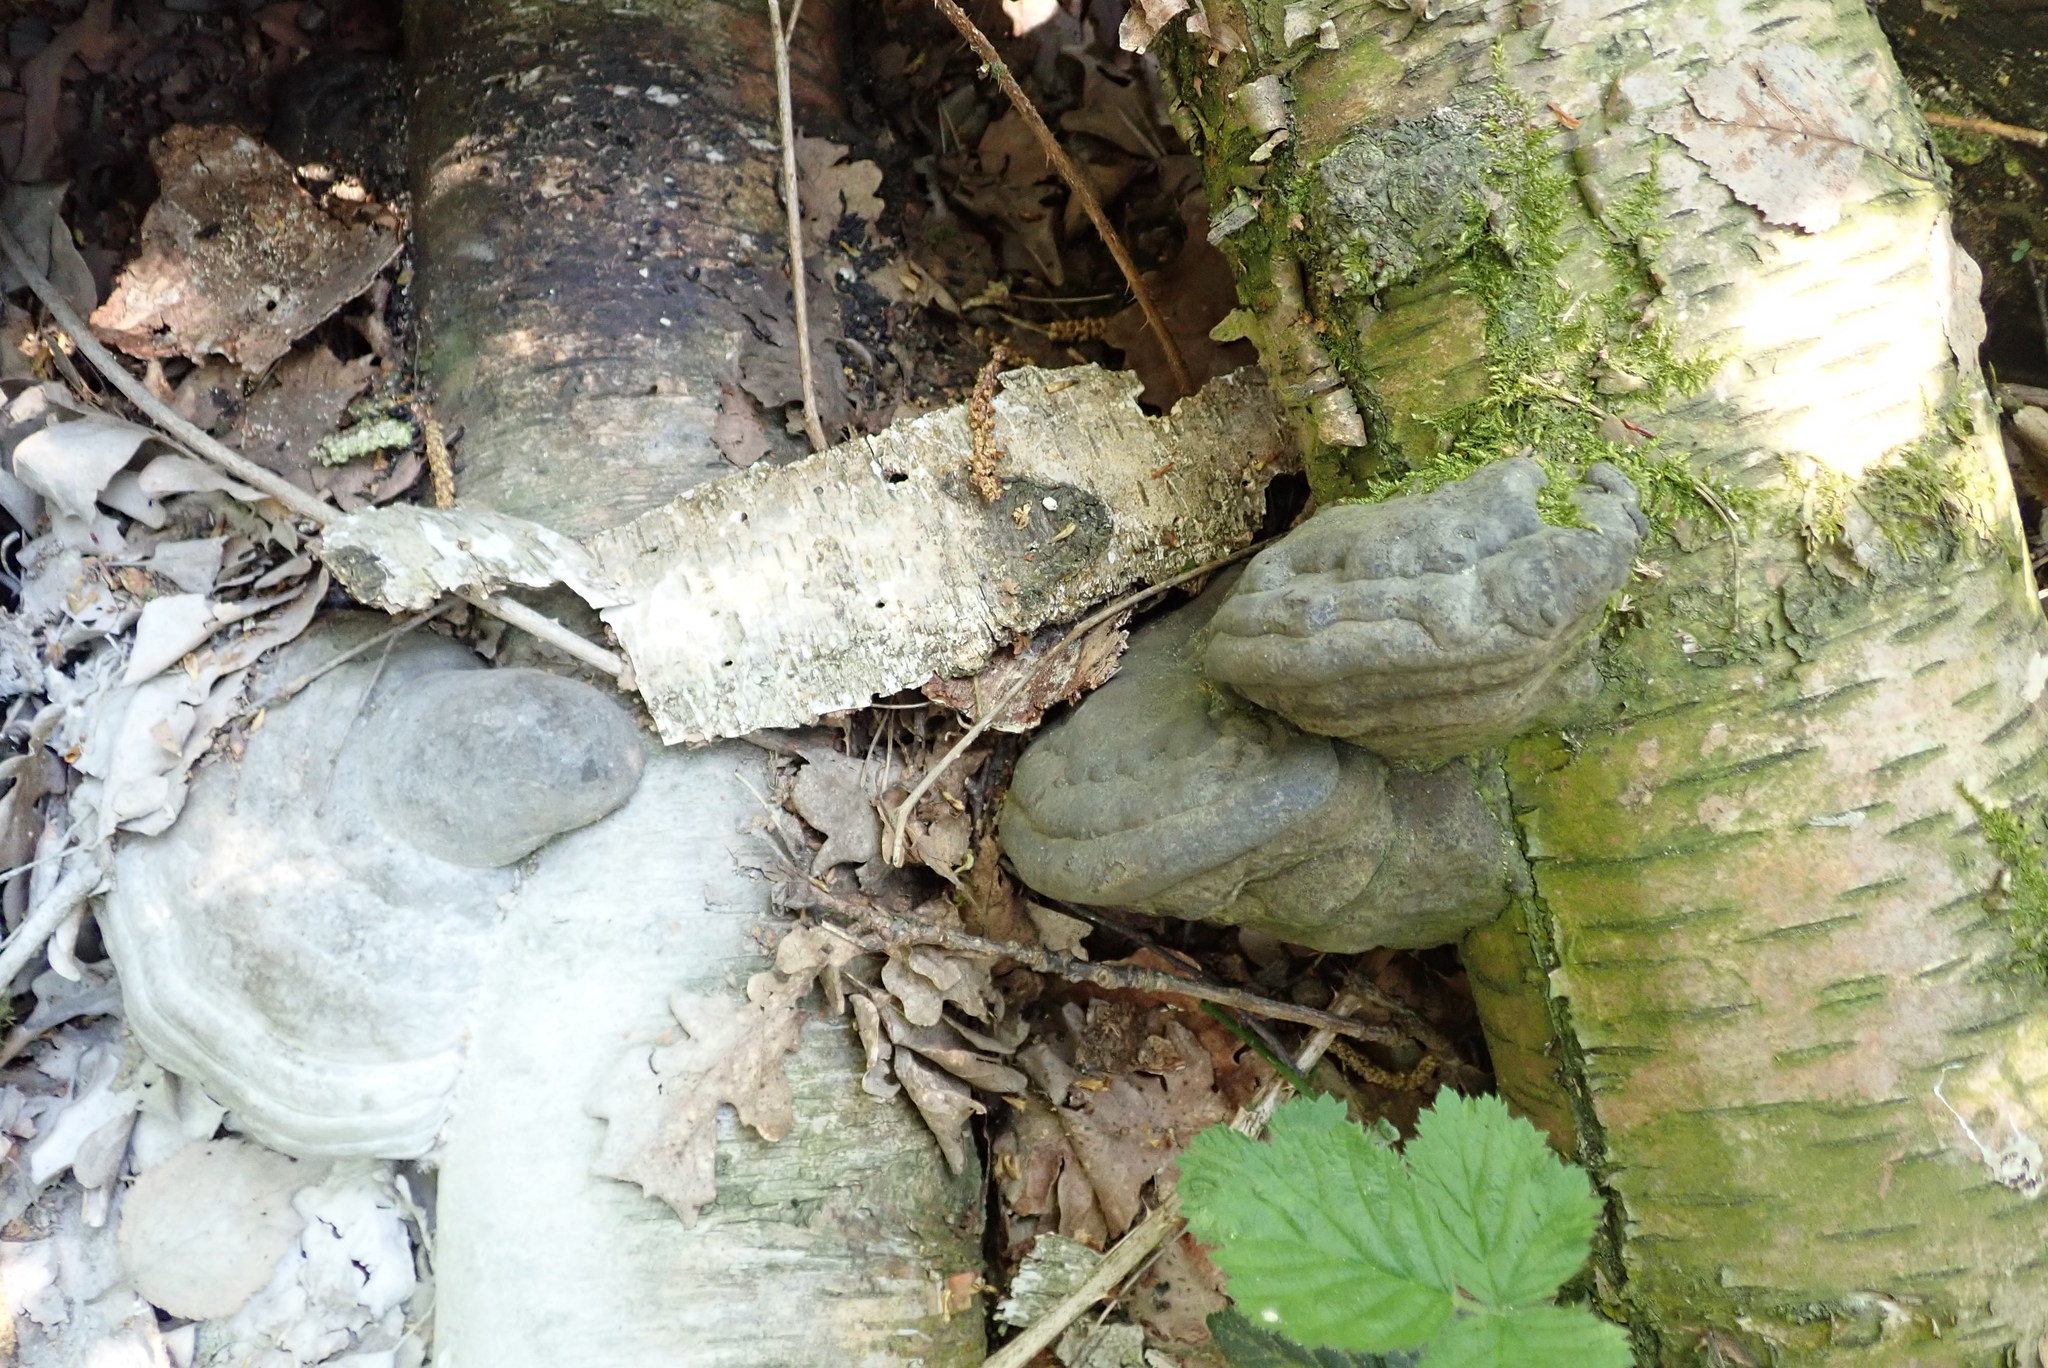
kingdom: Fungi
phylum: Basidiomycota
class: Agaricomycetes
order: Polyporales
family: Fomitopsidaceae
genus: Fomitopsis
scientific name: Fomitopsis betulina
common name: Birch polypore
